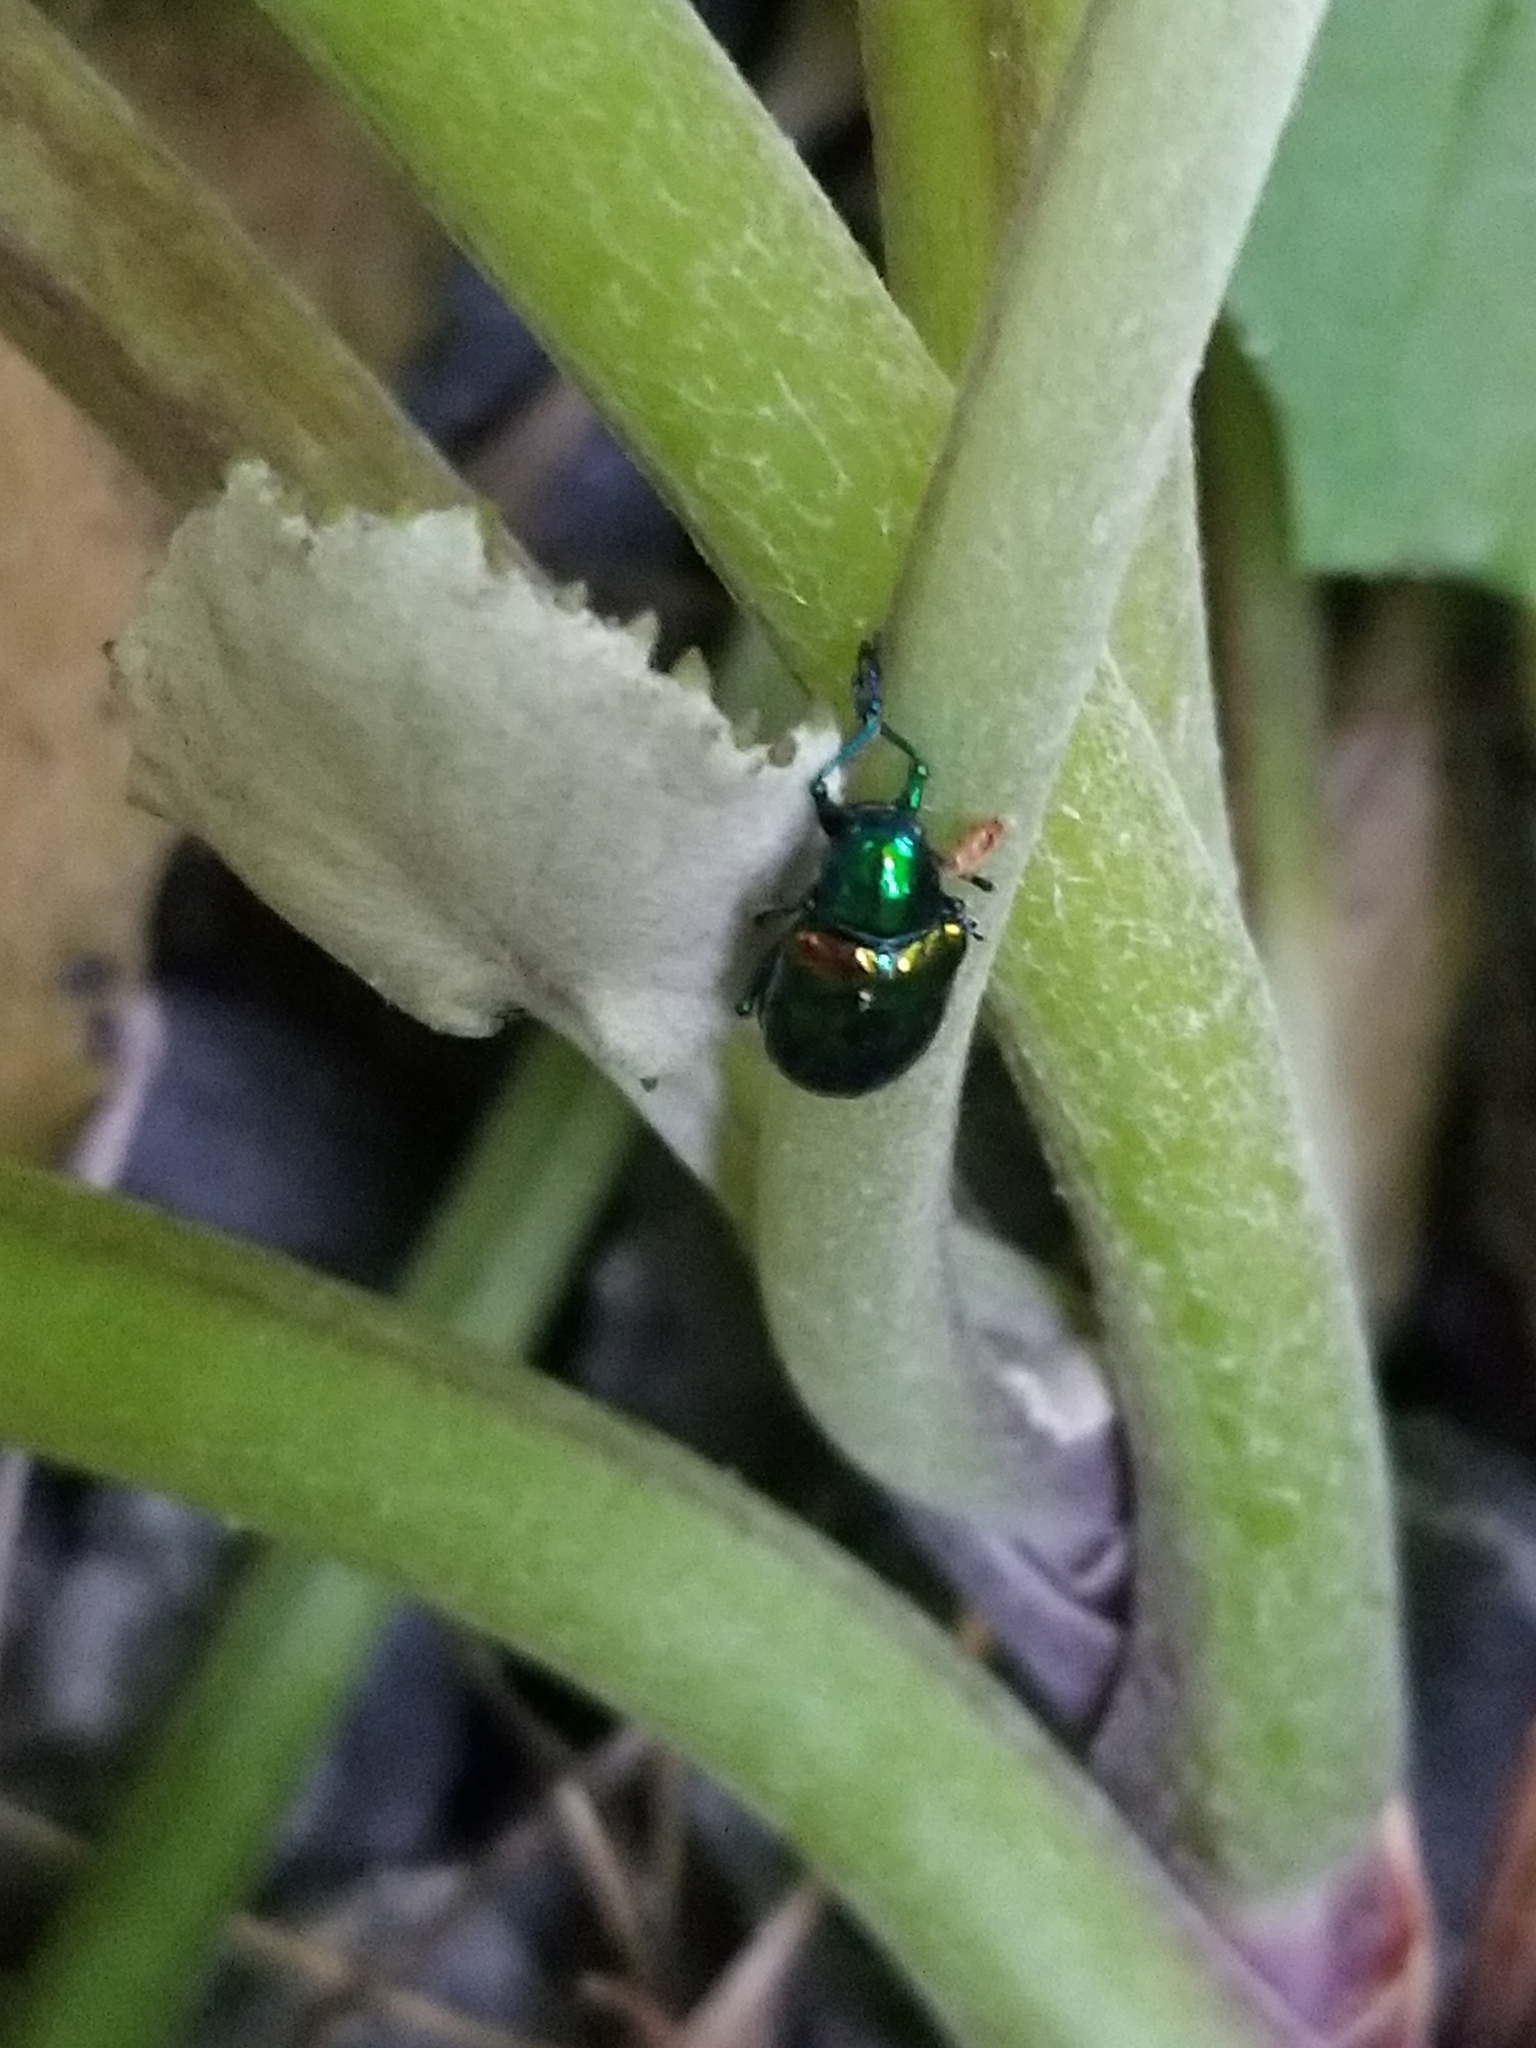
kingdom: Animalia
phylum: Arthropoda
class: Insecta
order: Coleoptera
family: Chrysomelidae
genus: Chrysochus
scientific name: Chrysochus auratus
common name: Dogbane leaf beetle
